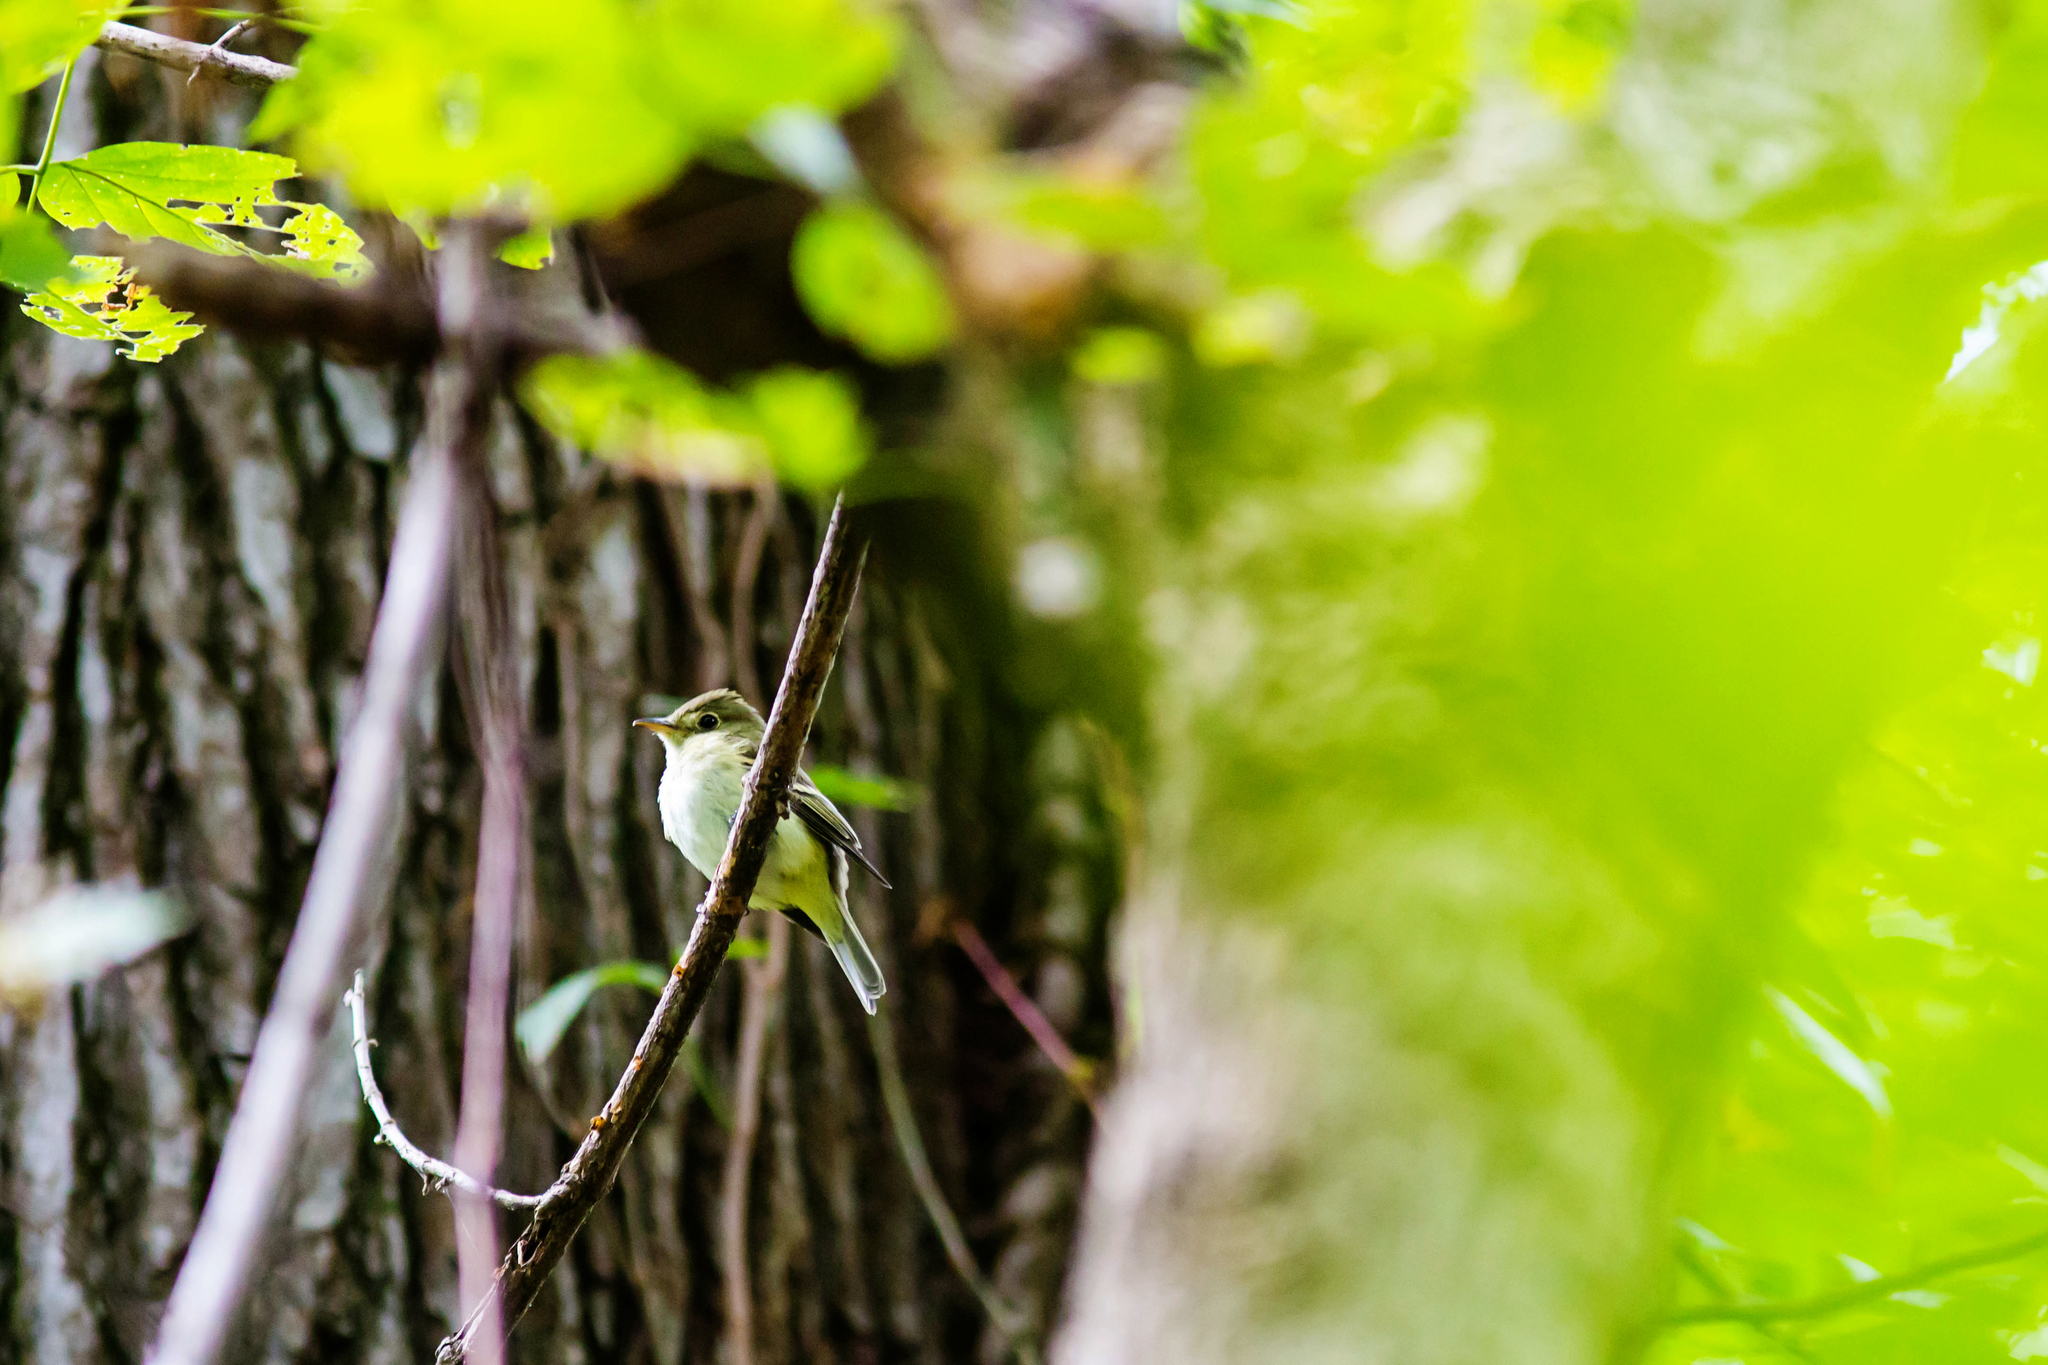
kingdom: Animalia
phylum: Chordata
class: Aves
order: Passeriformes
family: Tyrannidae
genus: Empidonax
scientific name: Empidonax virescens
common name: Acadian flycatcher
